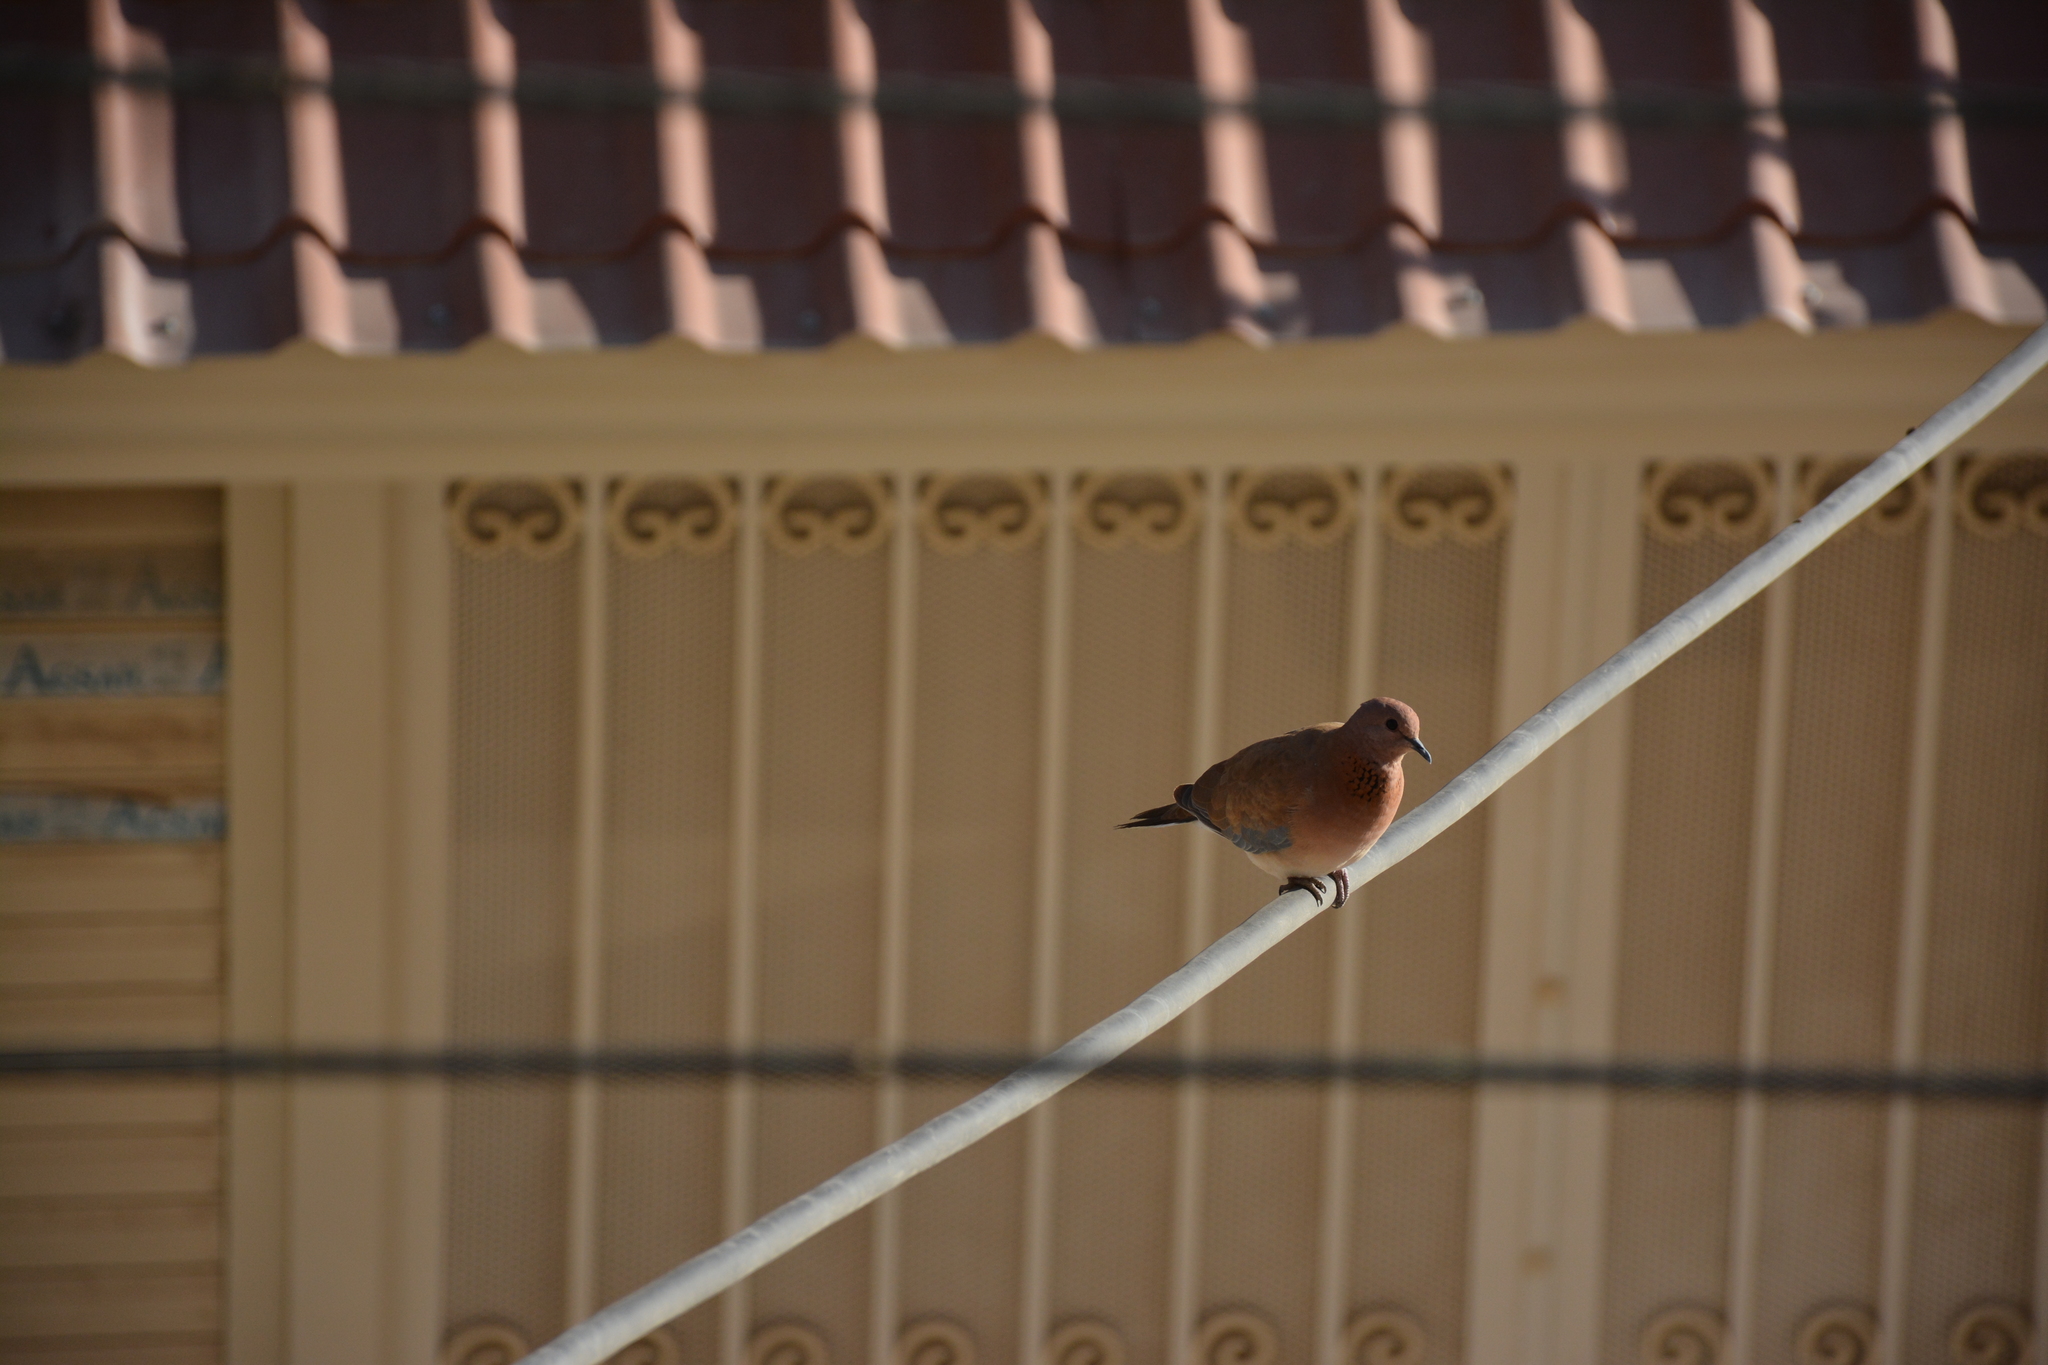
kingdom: Animalia
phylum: Chordata
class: Aves
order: Columbiformes
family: Columbidae
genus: Spilopelia
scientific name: Spilopelia senegalensis
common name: Laughing dove
